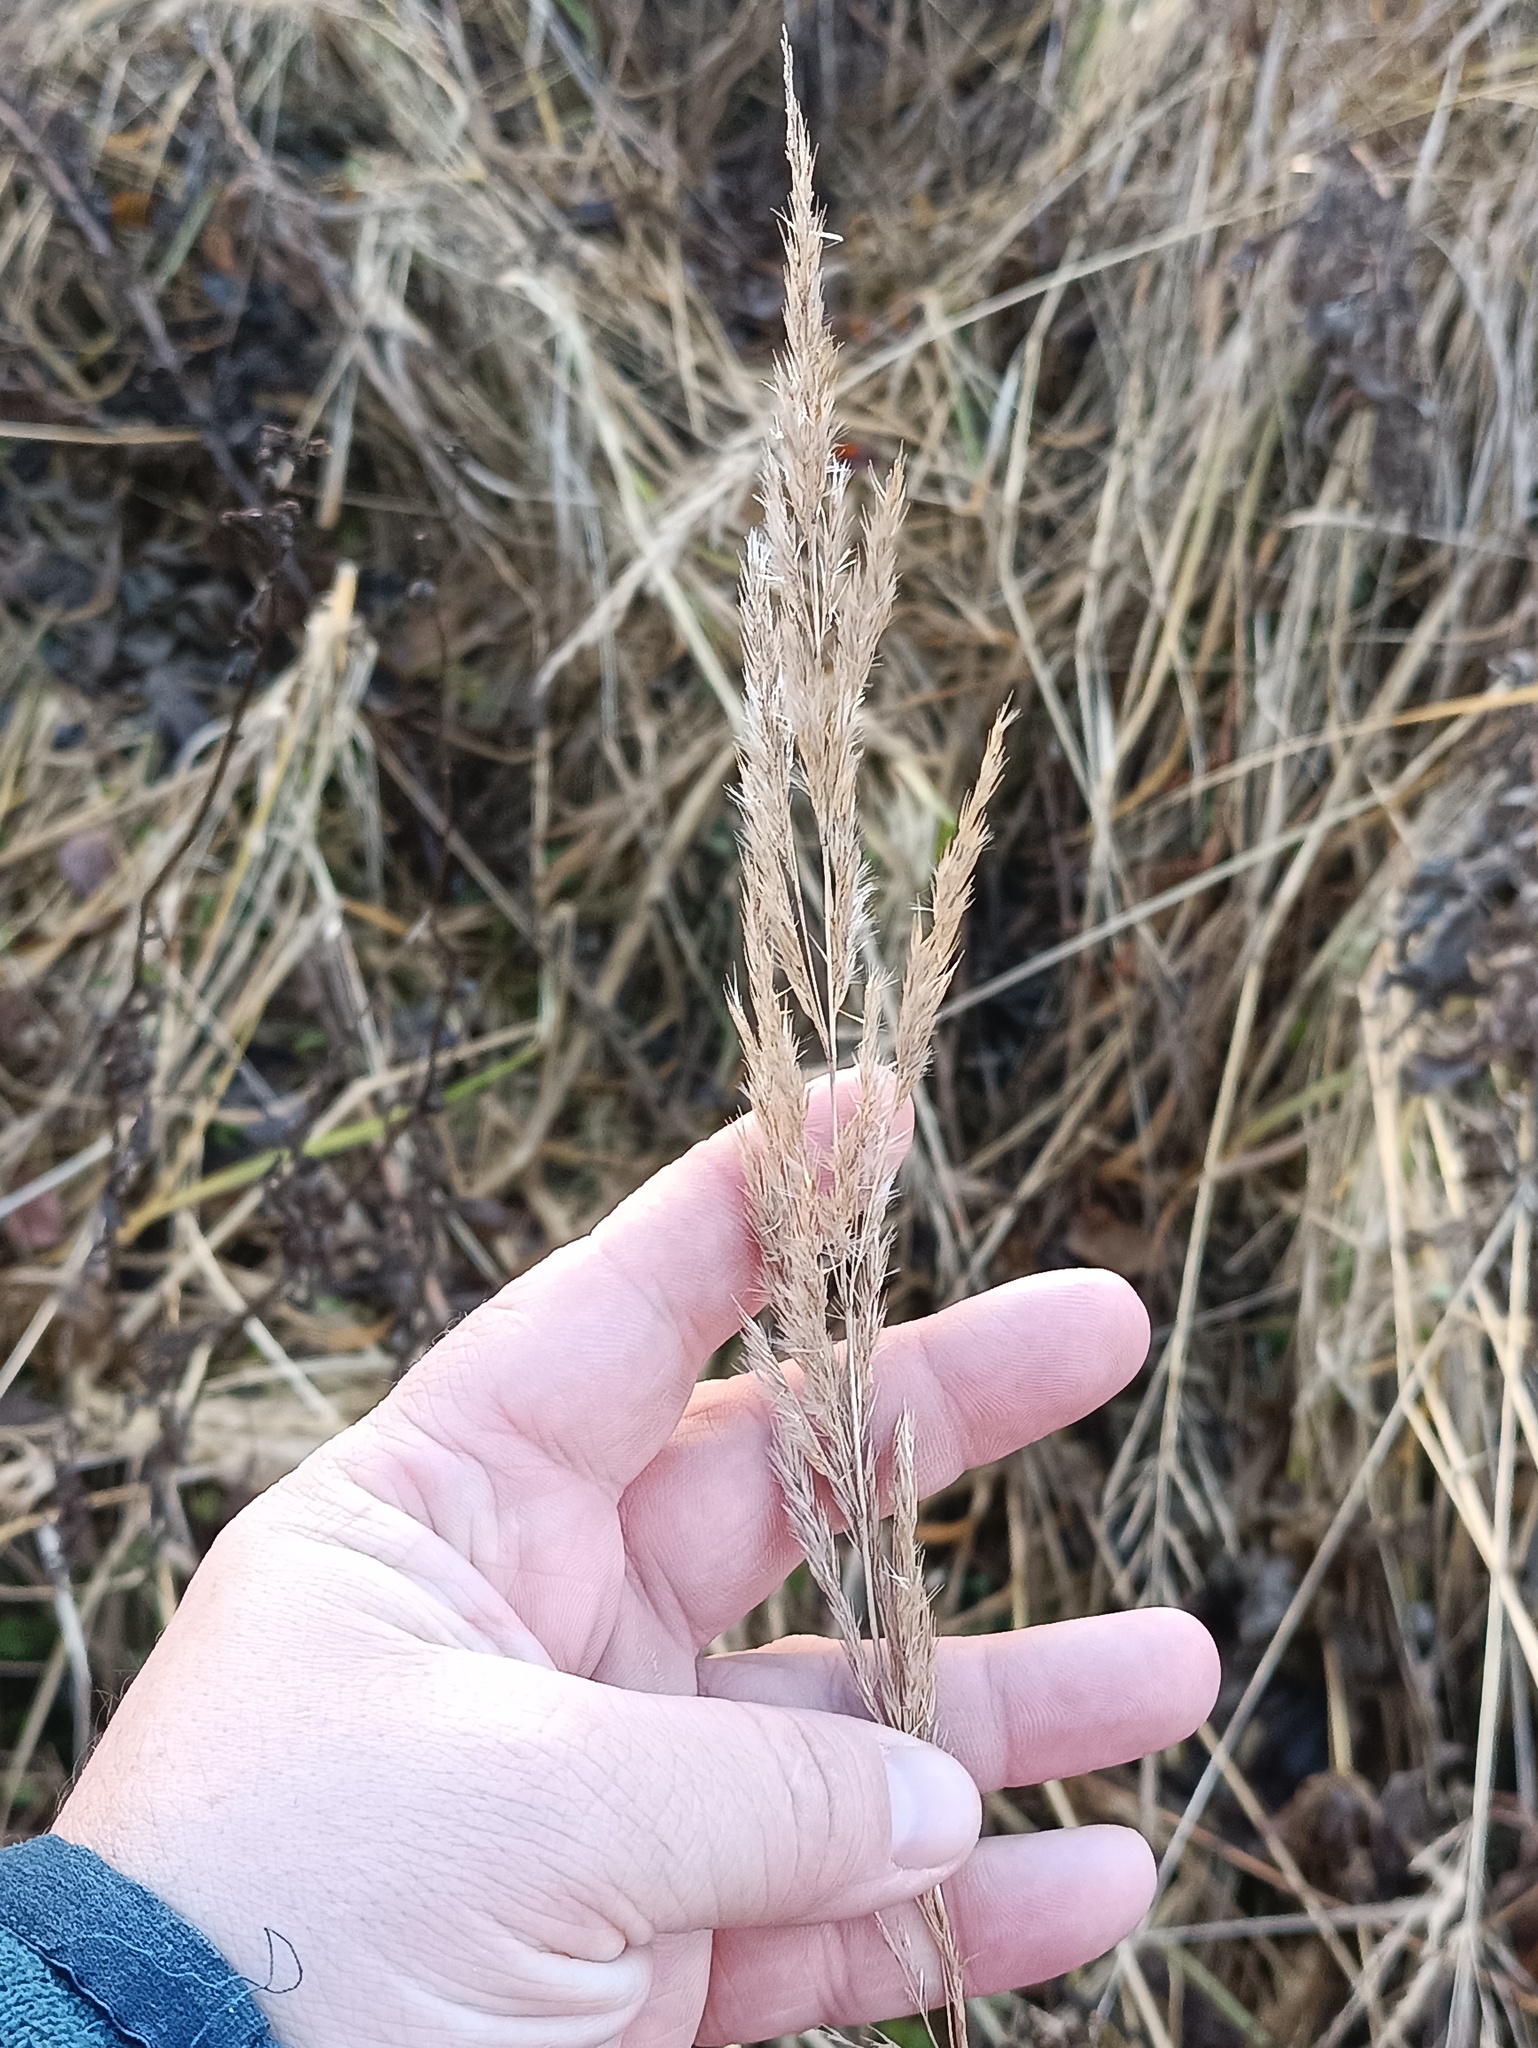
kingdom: Plantae
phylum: Tracheophyta
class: Liliopsida
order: Poales
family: Poaceae
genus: Calamagrostis
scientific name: Calamagrostis epigejos
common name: Wood small-reed
